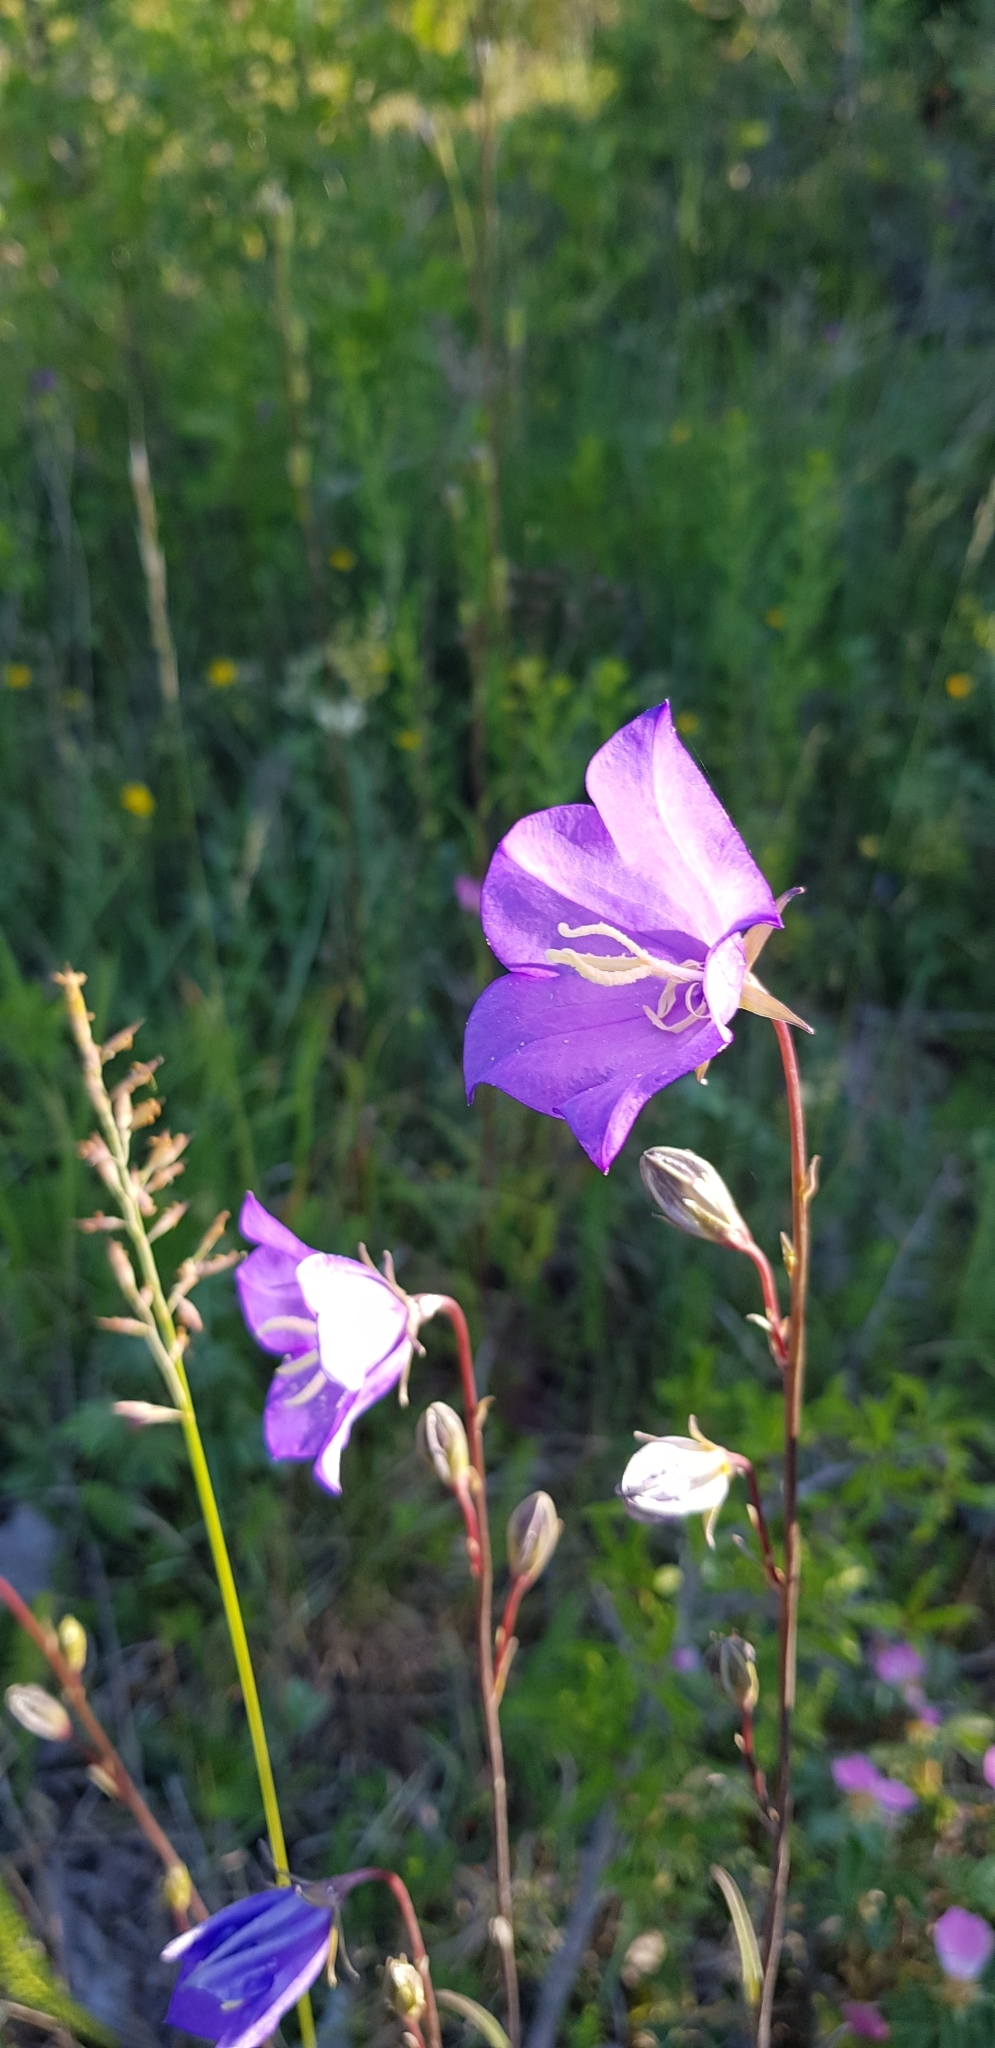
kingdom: Plantae
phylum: Tracheophyta
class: Magnoliopsida
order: Asterales
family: Campanulaceae
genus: Campanula
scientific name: Campanula persicifolia
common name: Peach-leaved bellflower
